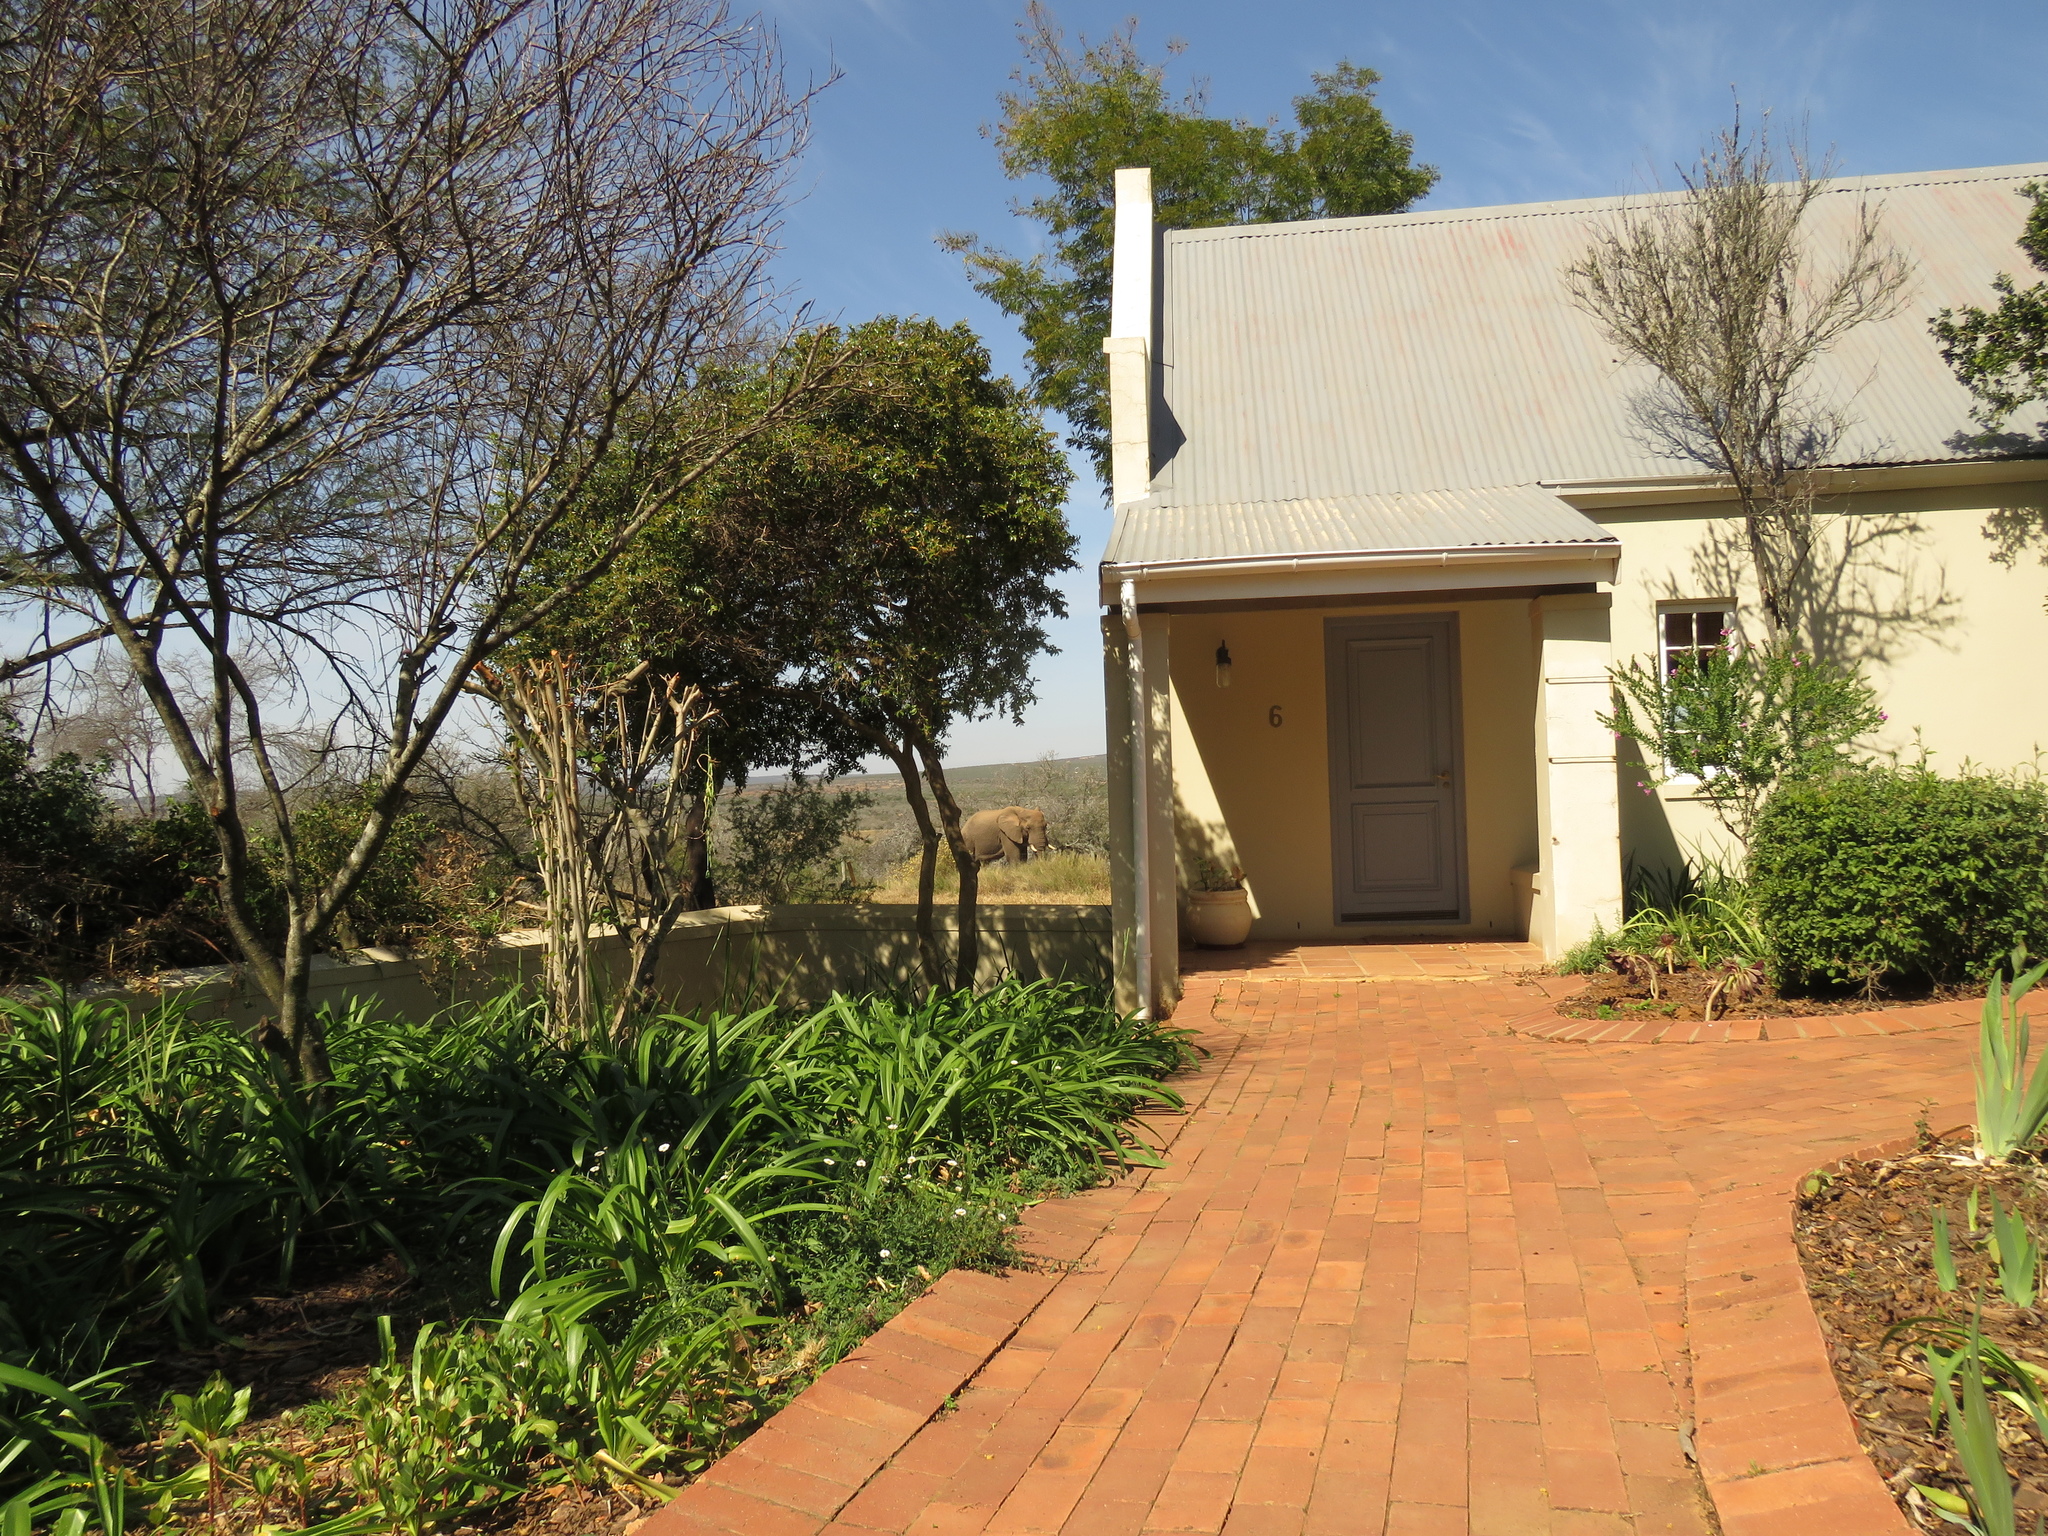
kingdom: Animalia
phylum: Chordata
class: Mammalia
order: Proboscidea
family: Elephantidae
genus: Loxodonta
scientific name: Loxodonta africana
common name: African elephant
